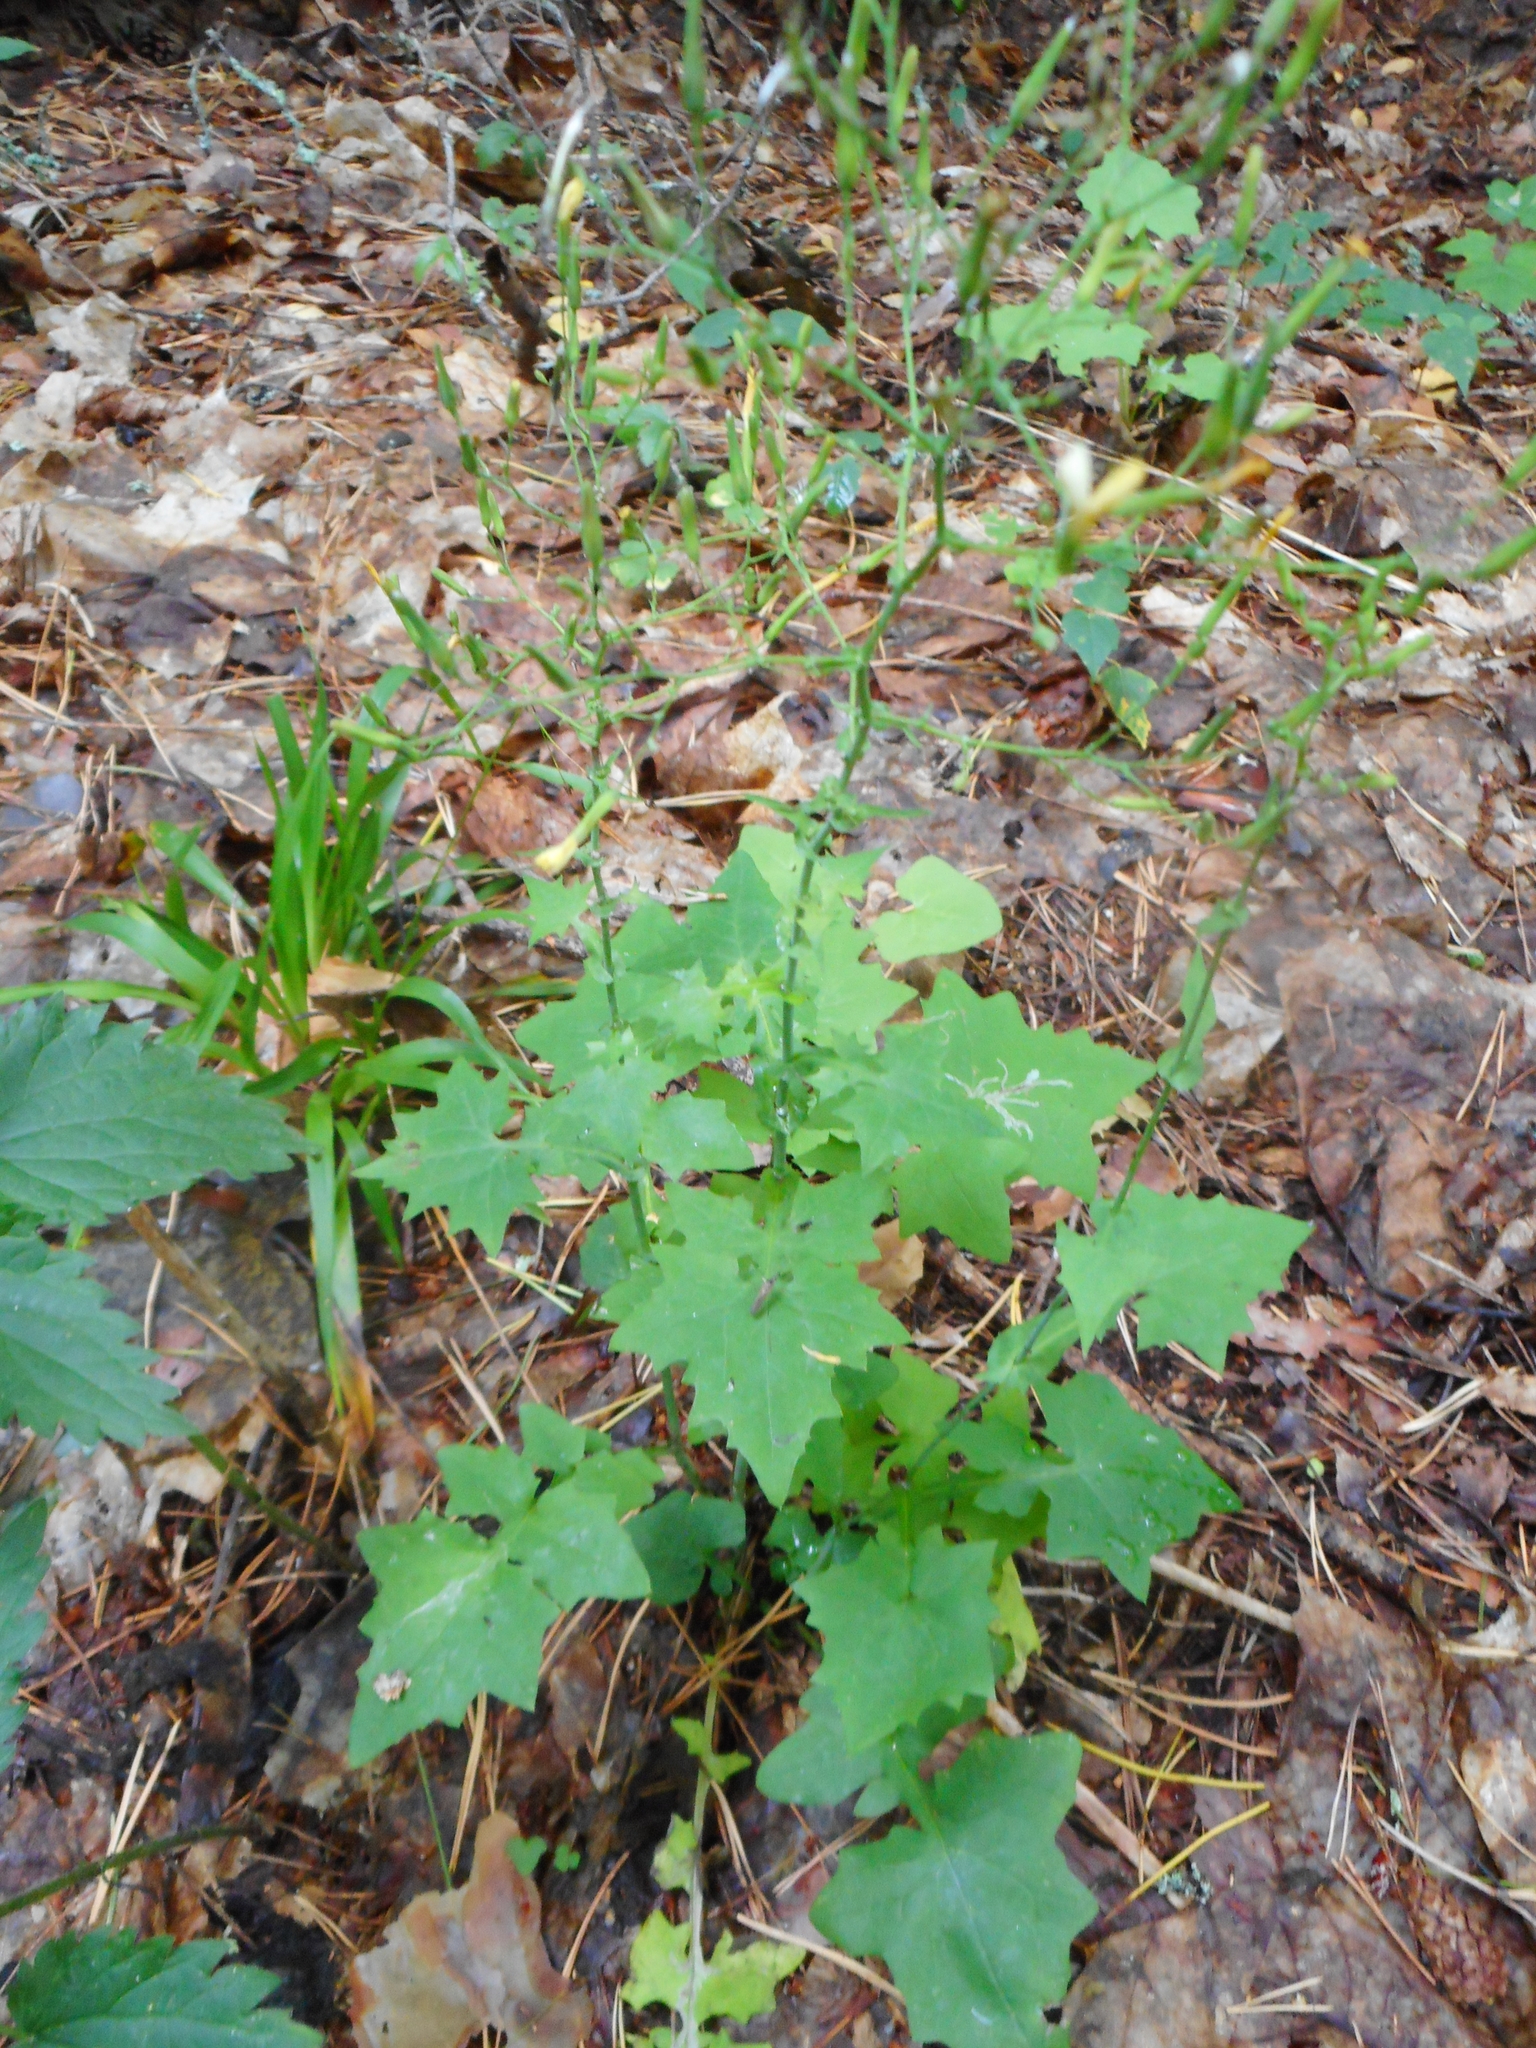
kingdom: Plantae
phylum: Tracheophyta
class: Magnoliopsida
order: Asterales
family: Asteraceae
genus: Mycelis
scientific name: Mycelis muralis
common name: Wall lettuce
